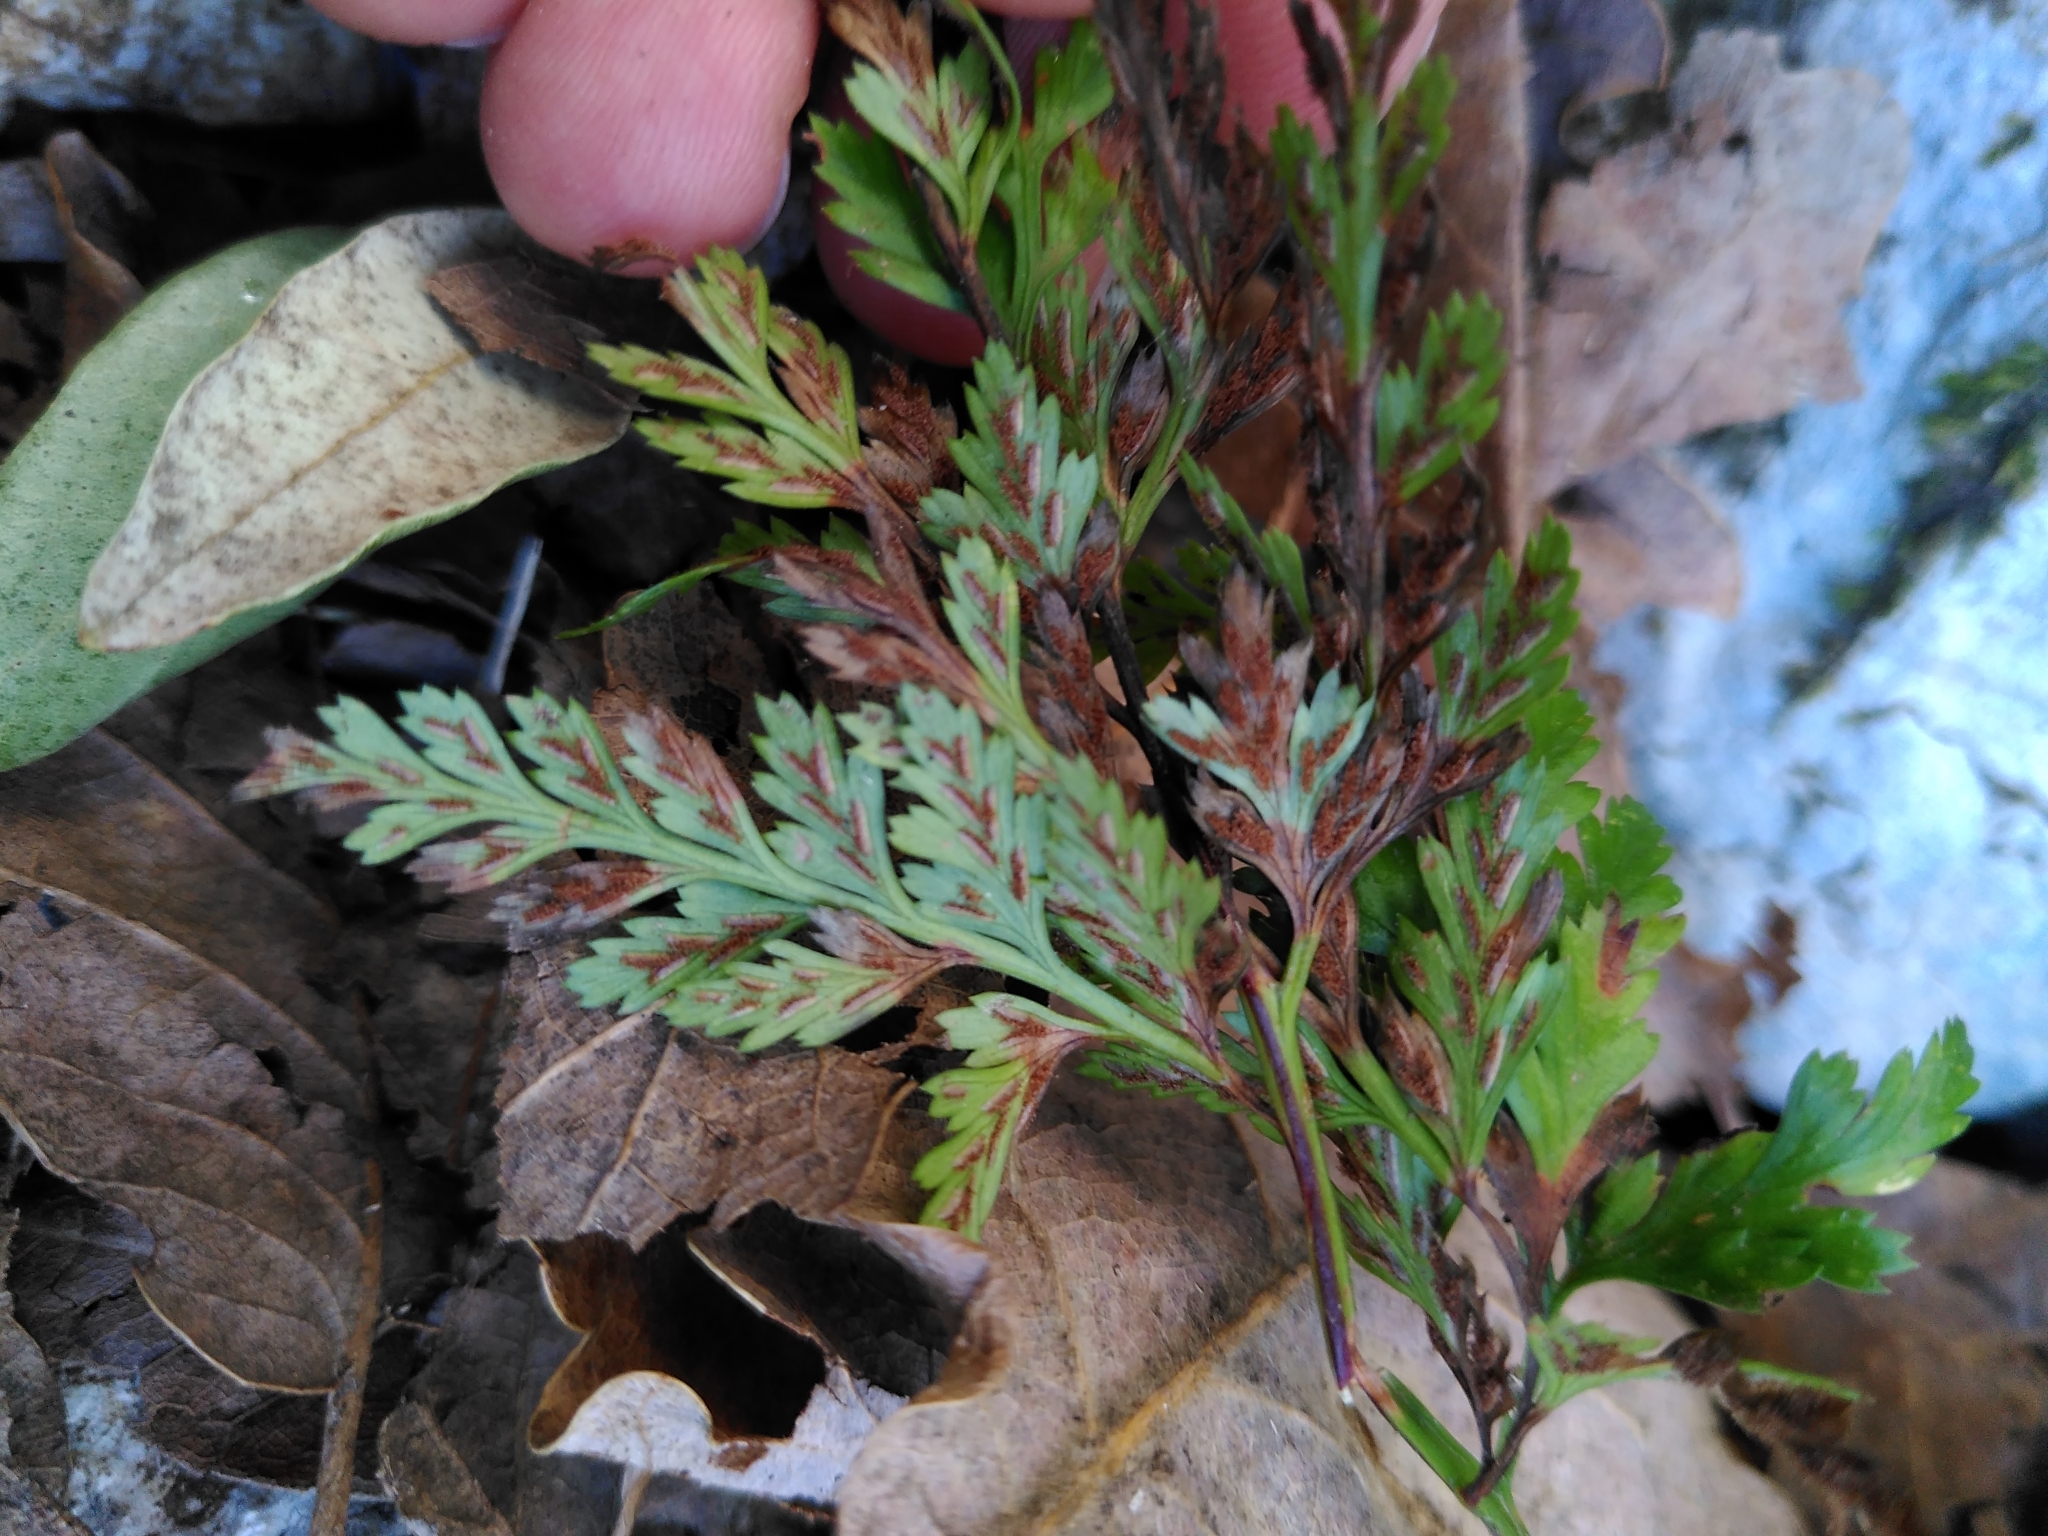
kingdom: Plantae
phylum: Tracheophyta
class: Polypodiopsida
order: Polypodiales
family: Aspleniaceae
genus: Asplenium
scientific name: Asplenium adiantum-nigrum
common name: Black spleenwort
